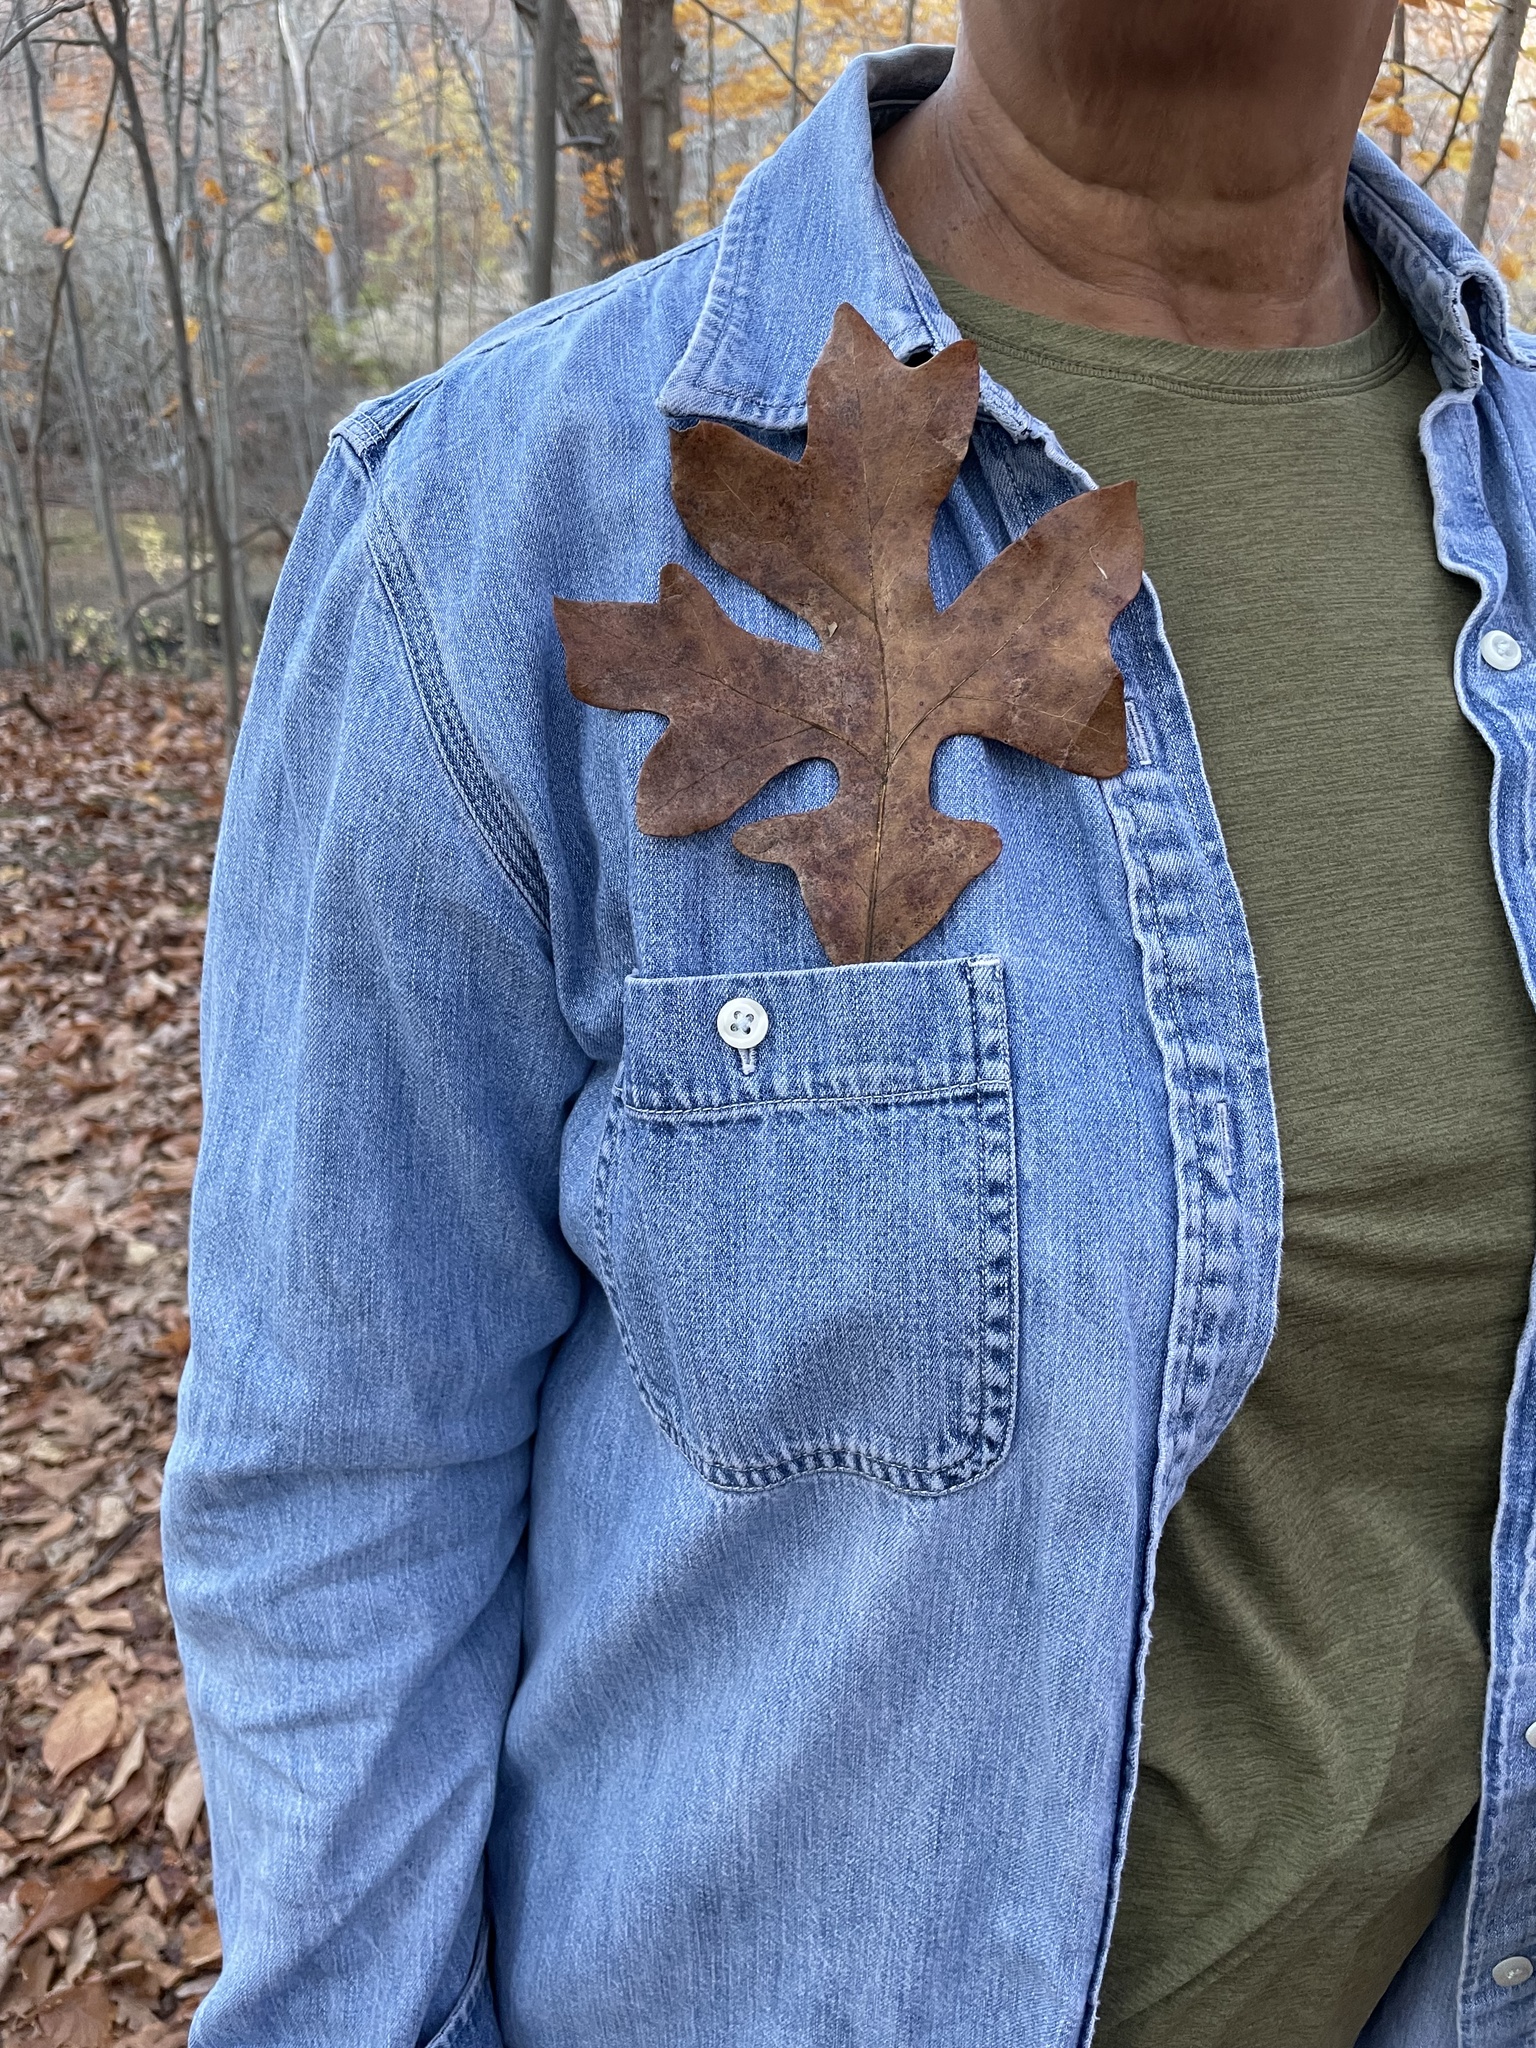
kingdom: Plantae
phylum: Tracheophyta
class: Magnoliopsida
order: Fagales
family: Fagaceae
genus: Quercus
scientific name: Quercus stellata
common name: Post oak
